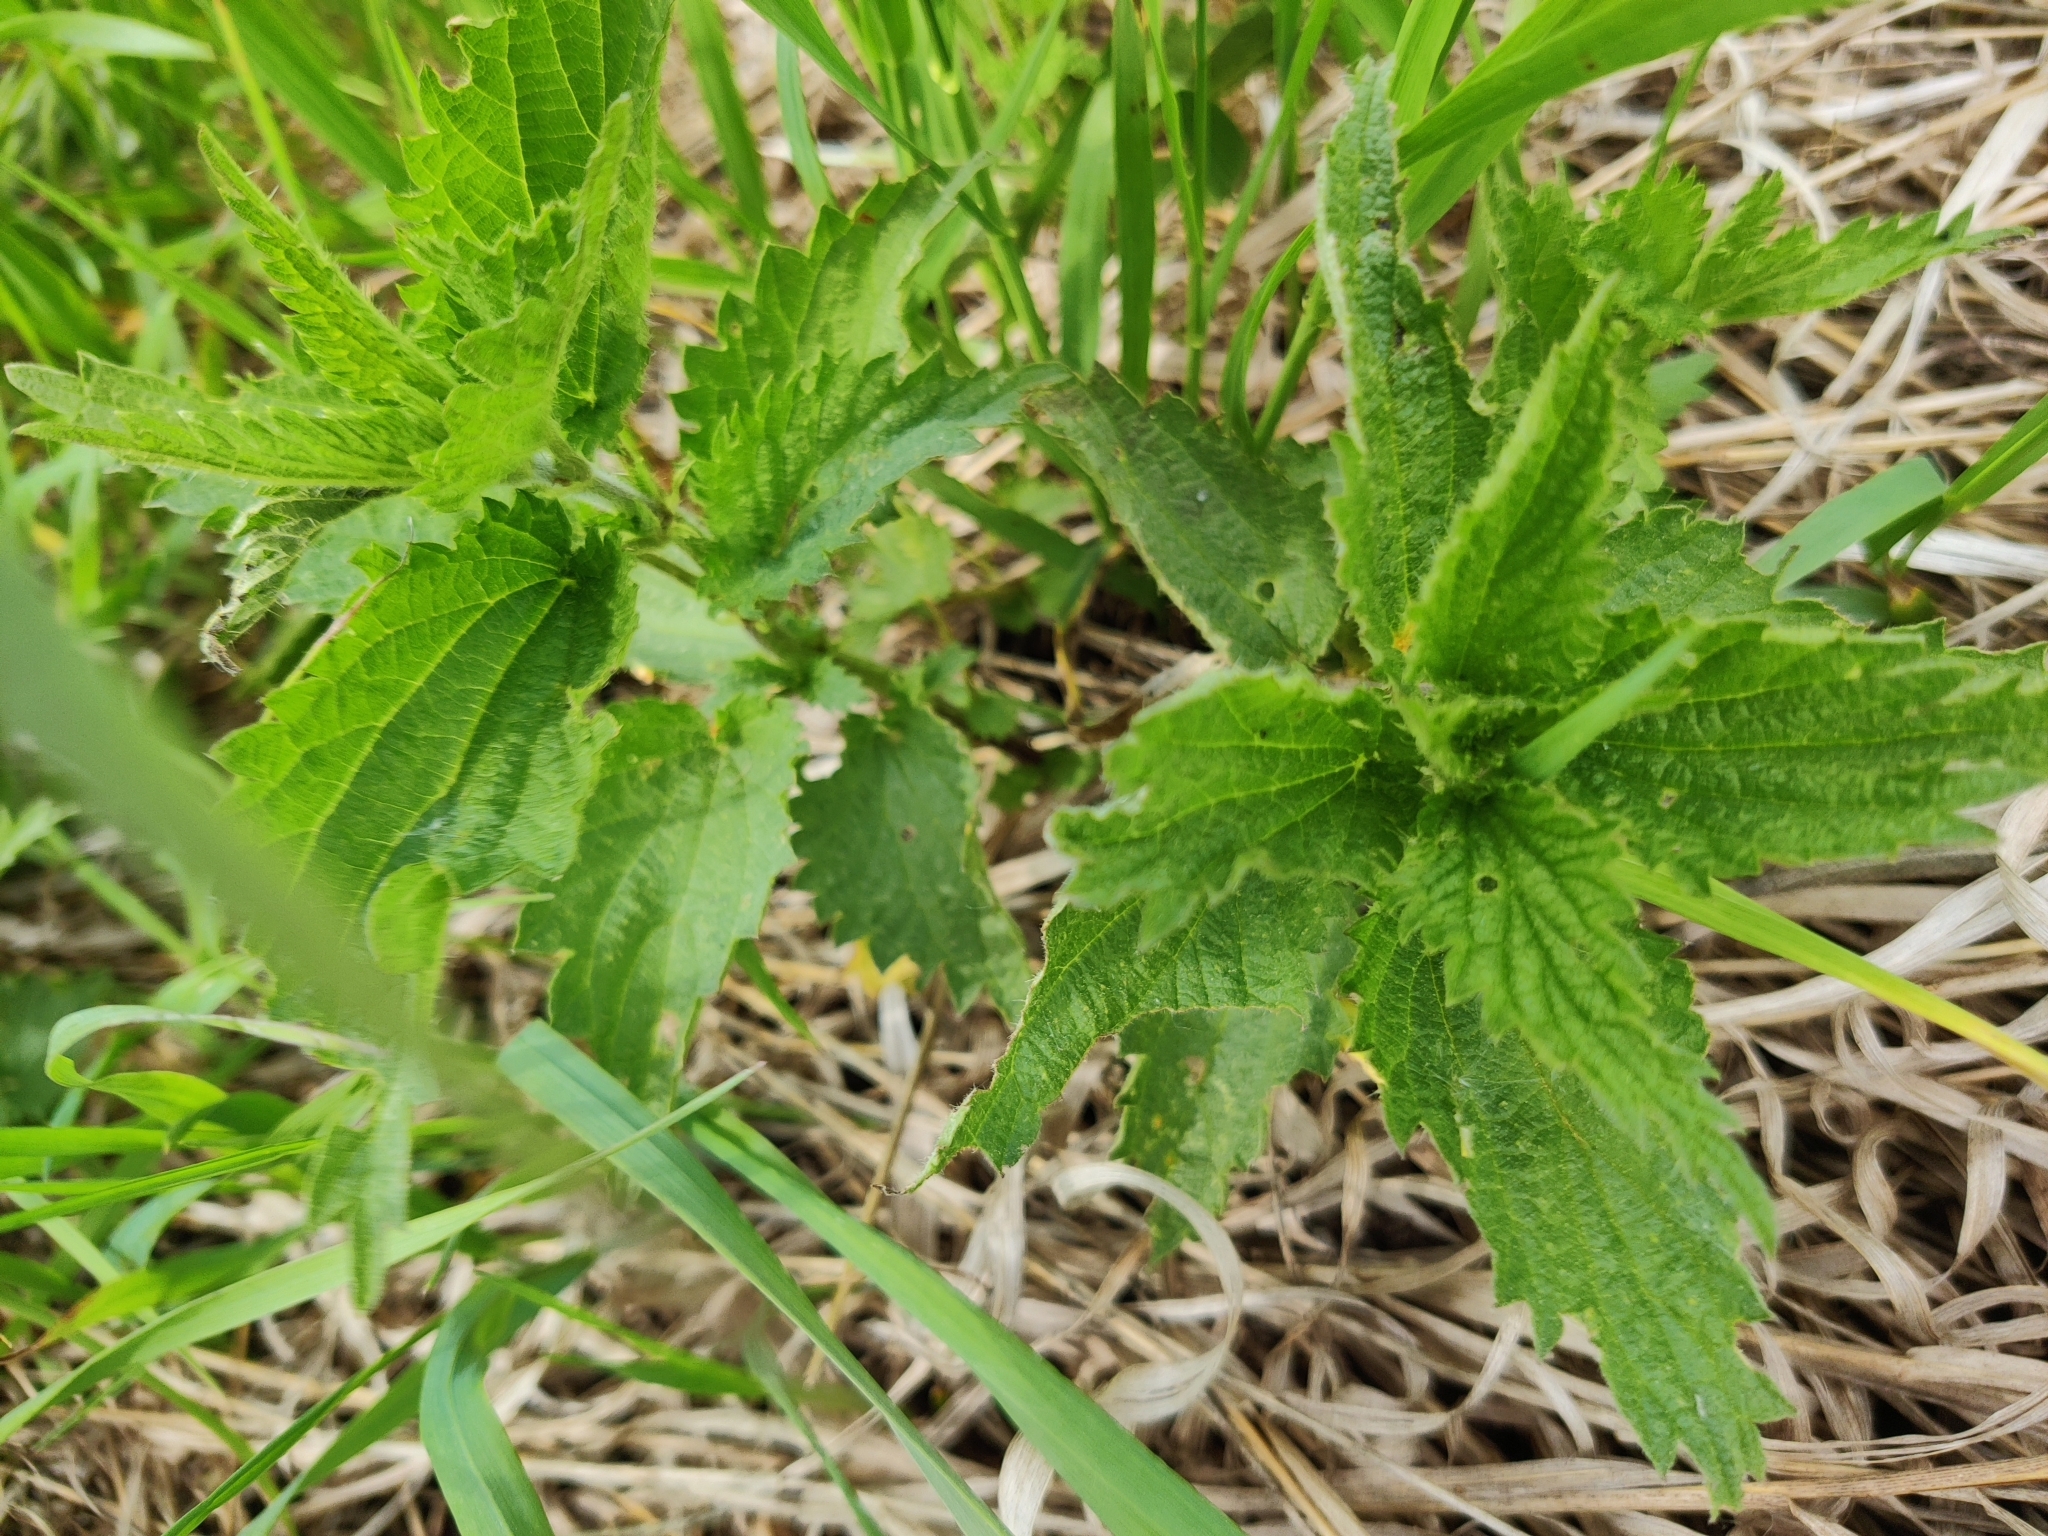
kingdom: Plantae
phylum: Tracheophyta
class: Magnoliopsida
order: Rosales
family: Urticaceae
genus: Urtica
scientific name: Urtica dioica
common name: Common nettle
